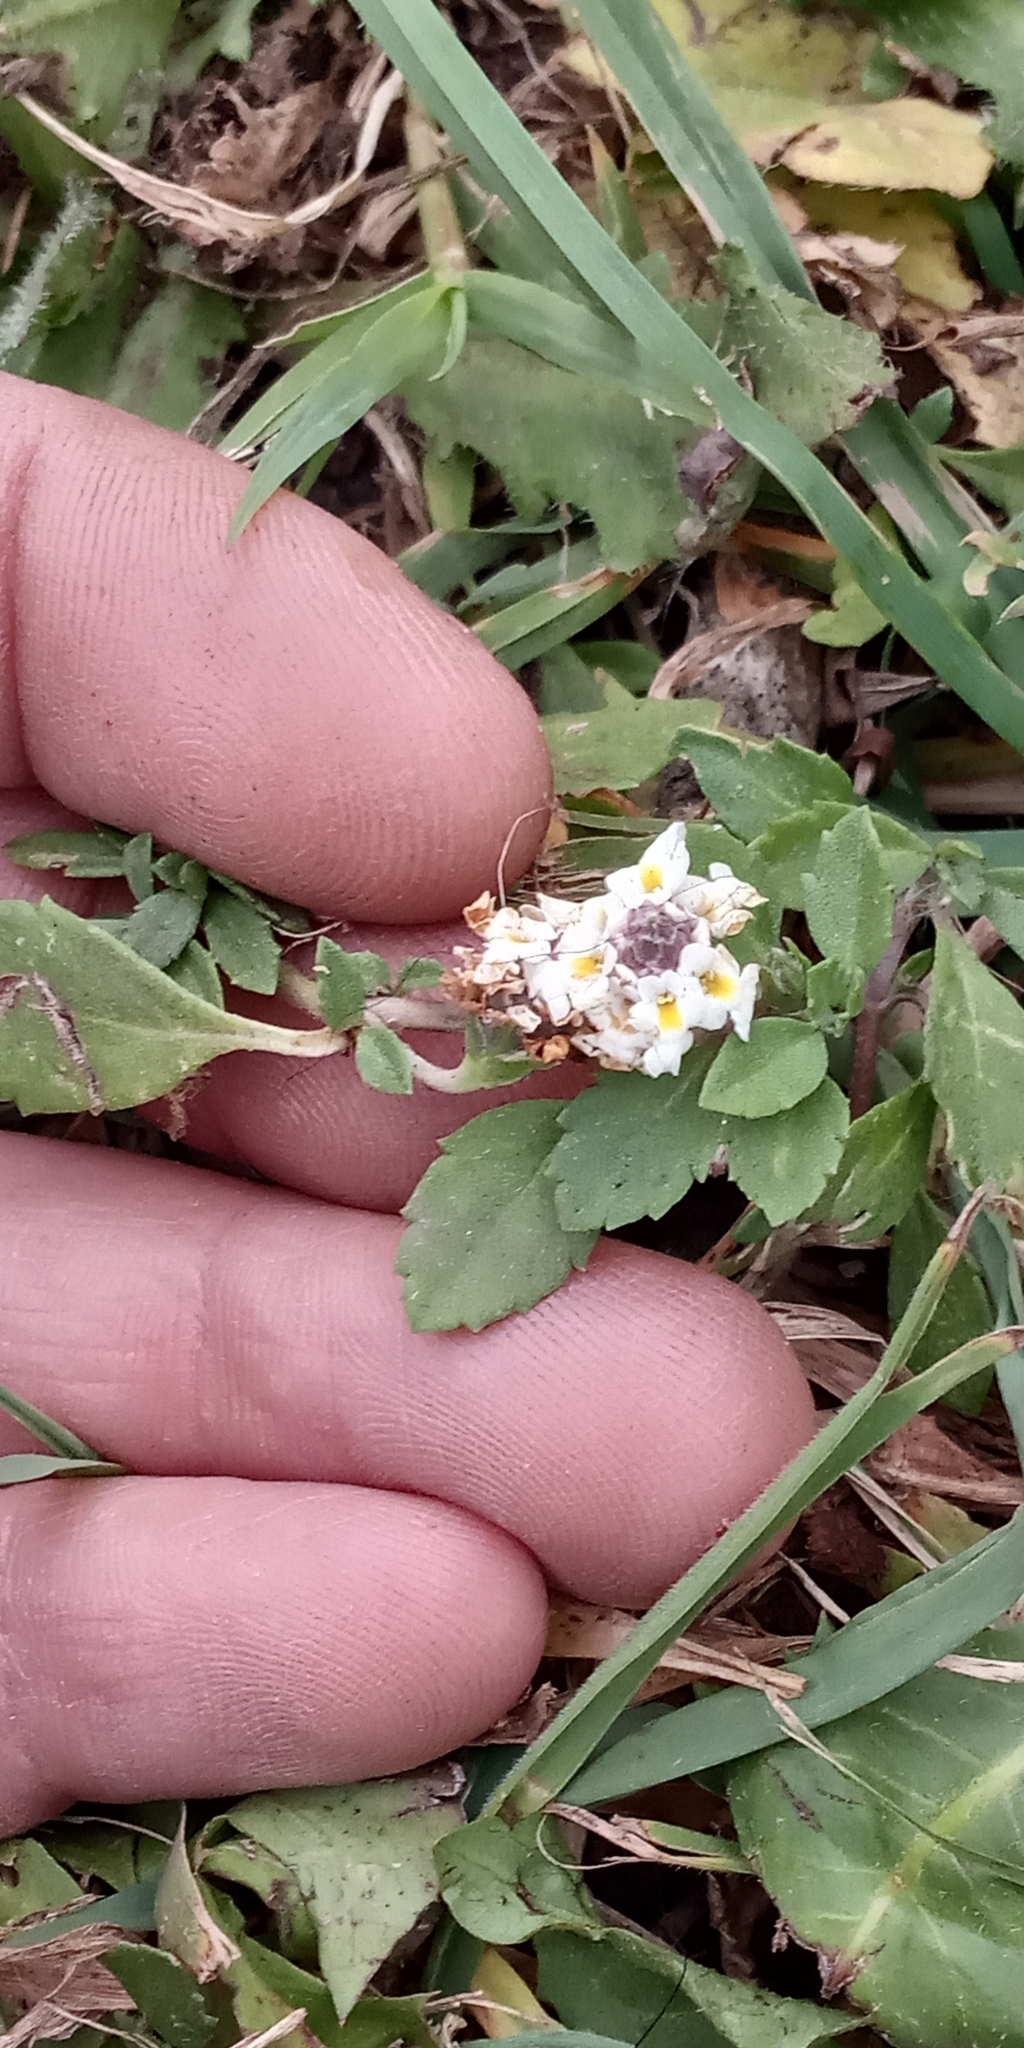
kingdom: Plantae
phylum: Tracheophyta
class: Magnoliopsida
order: Lamiales
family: Verbenaceae
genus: Phyla
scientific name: Phyla nodiflora
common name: Frogfruit
